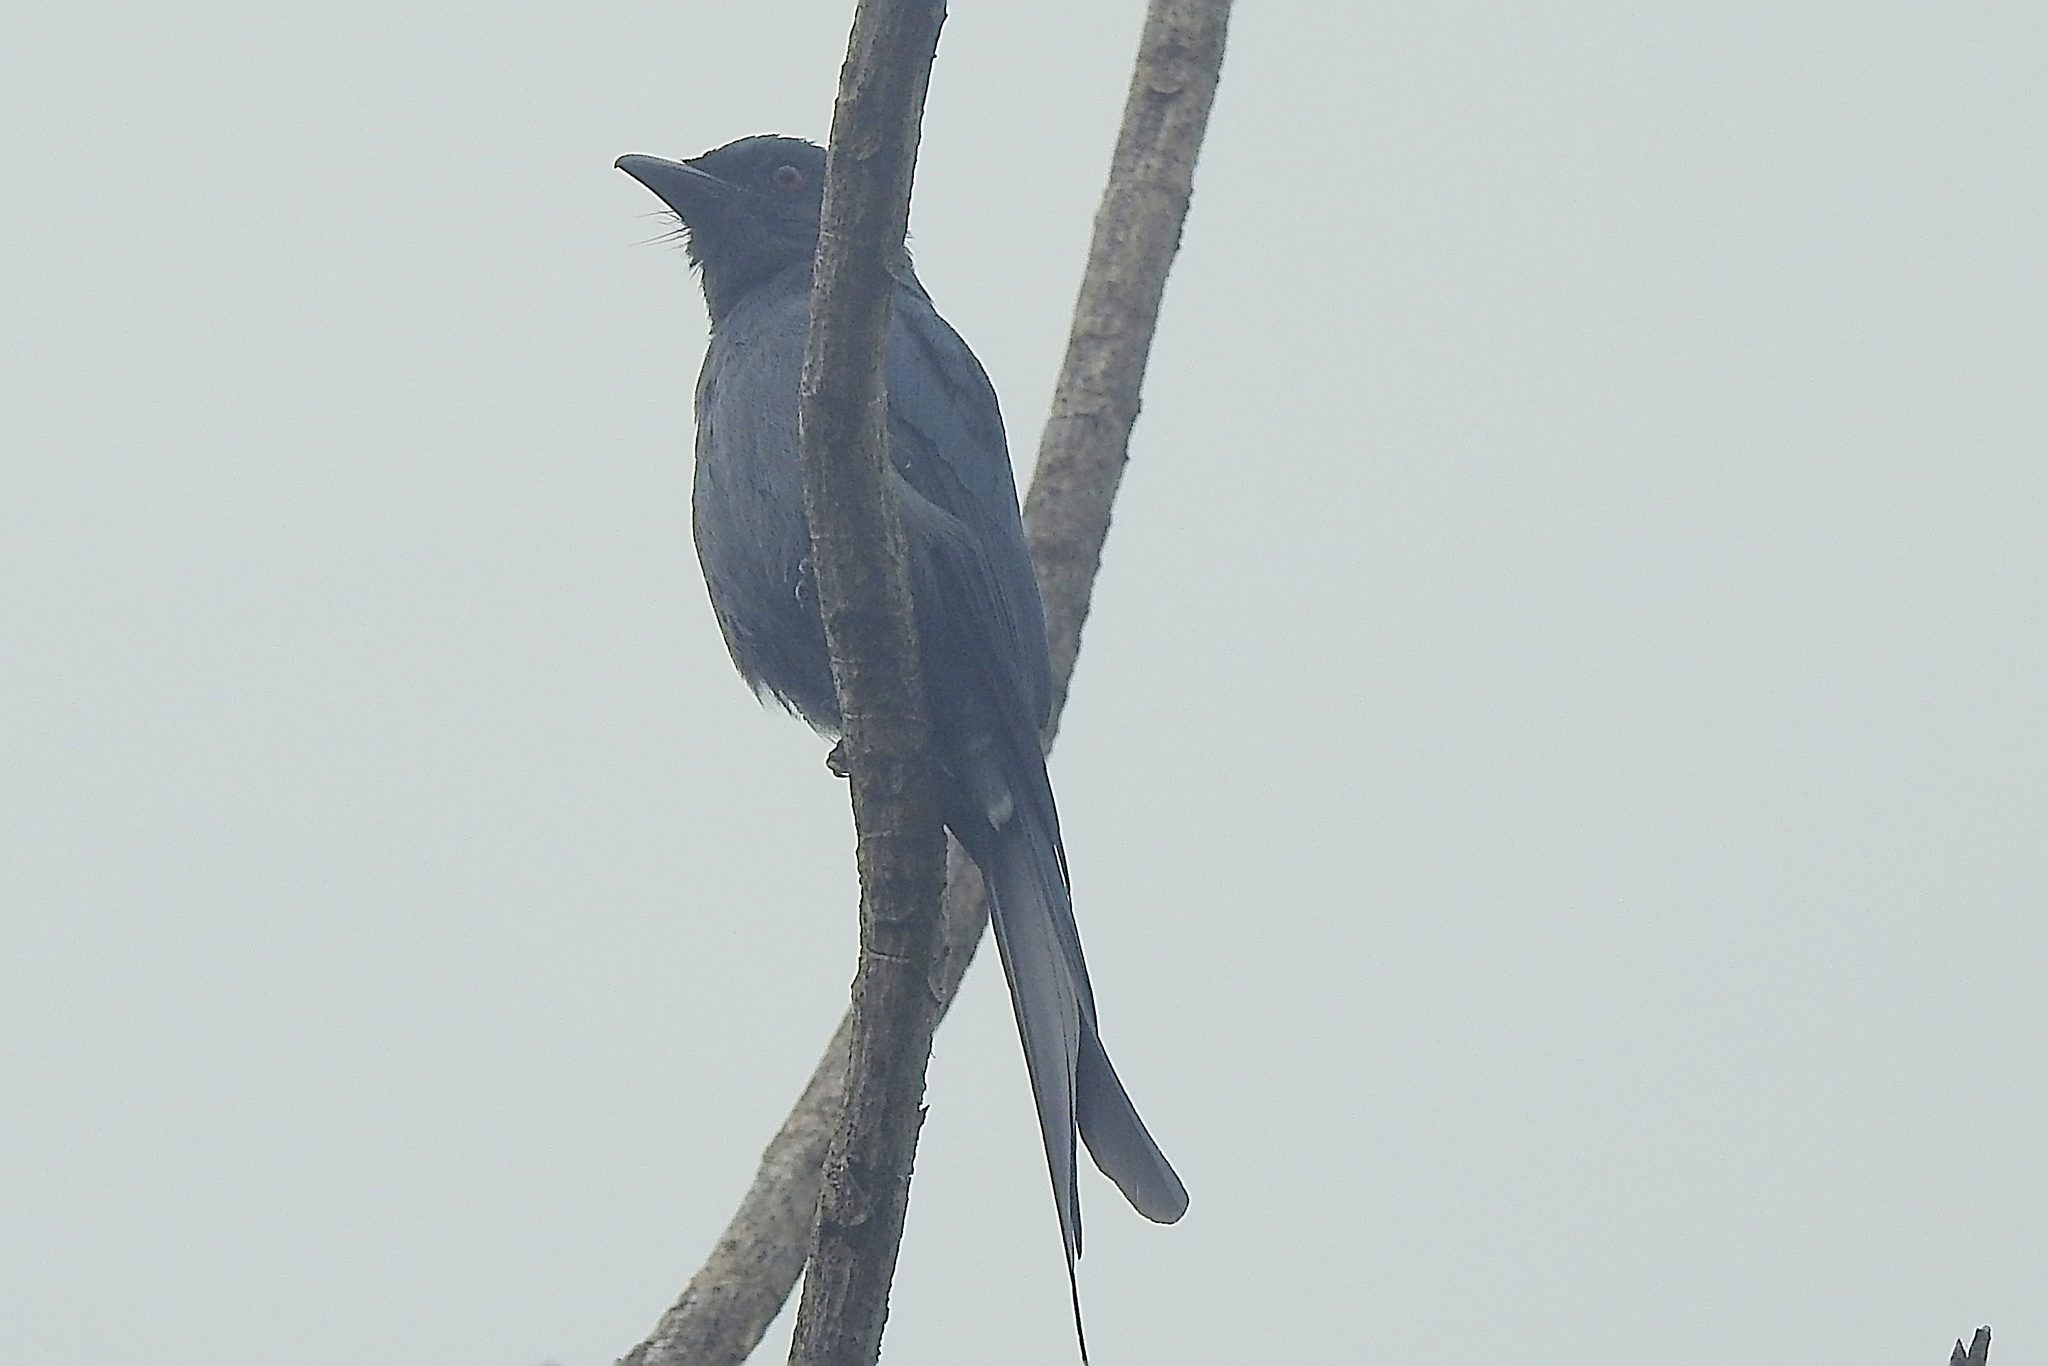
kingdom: Animalia
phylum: Chordata
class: Aves
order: Passeriformes
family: Dicruridae
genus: Dicrurus
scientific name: Dicrurus leucophaeus
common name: Ashy drongo
